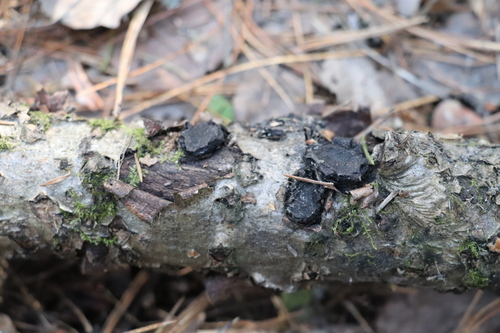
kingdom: Fungi
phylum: Ascomycota
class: Sordariomycetes
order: Xylariales
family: Graphostromataceae
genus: Biscogniauxia
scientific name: Biscogniauxia repanda
